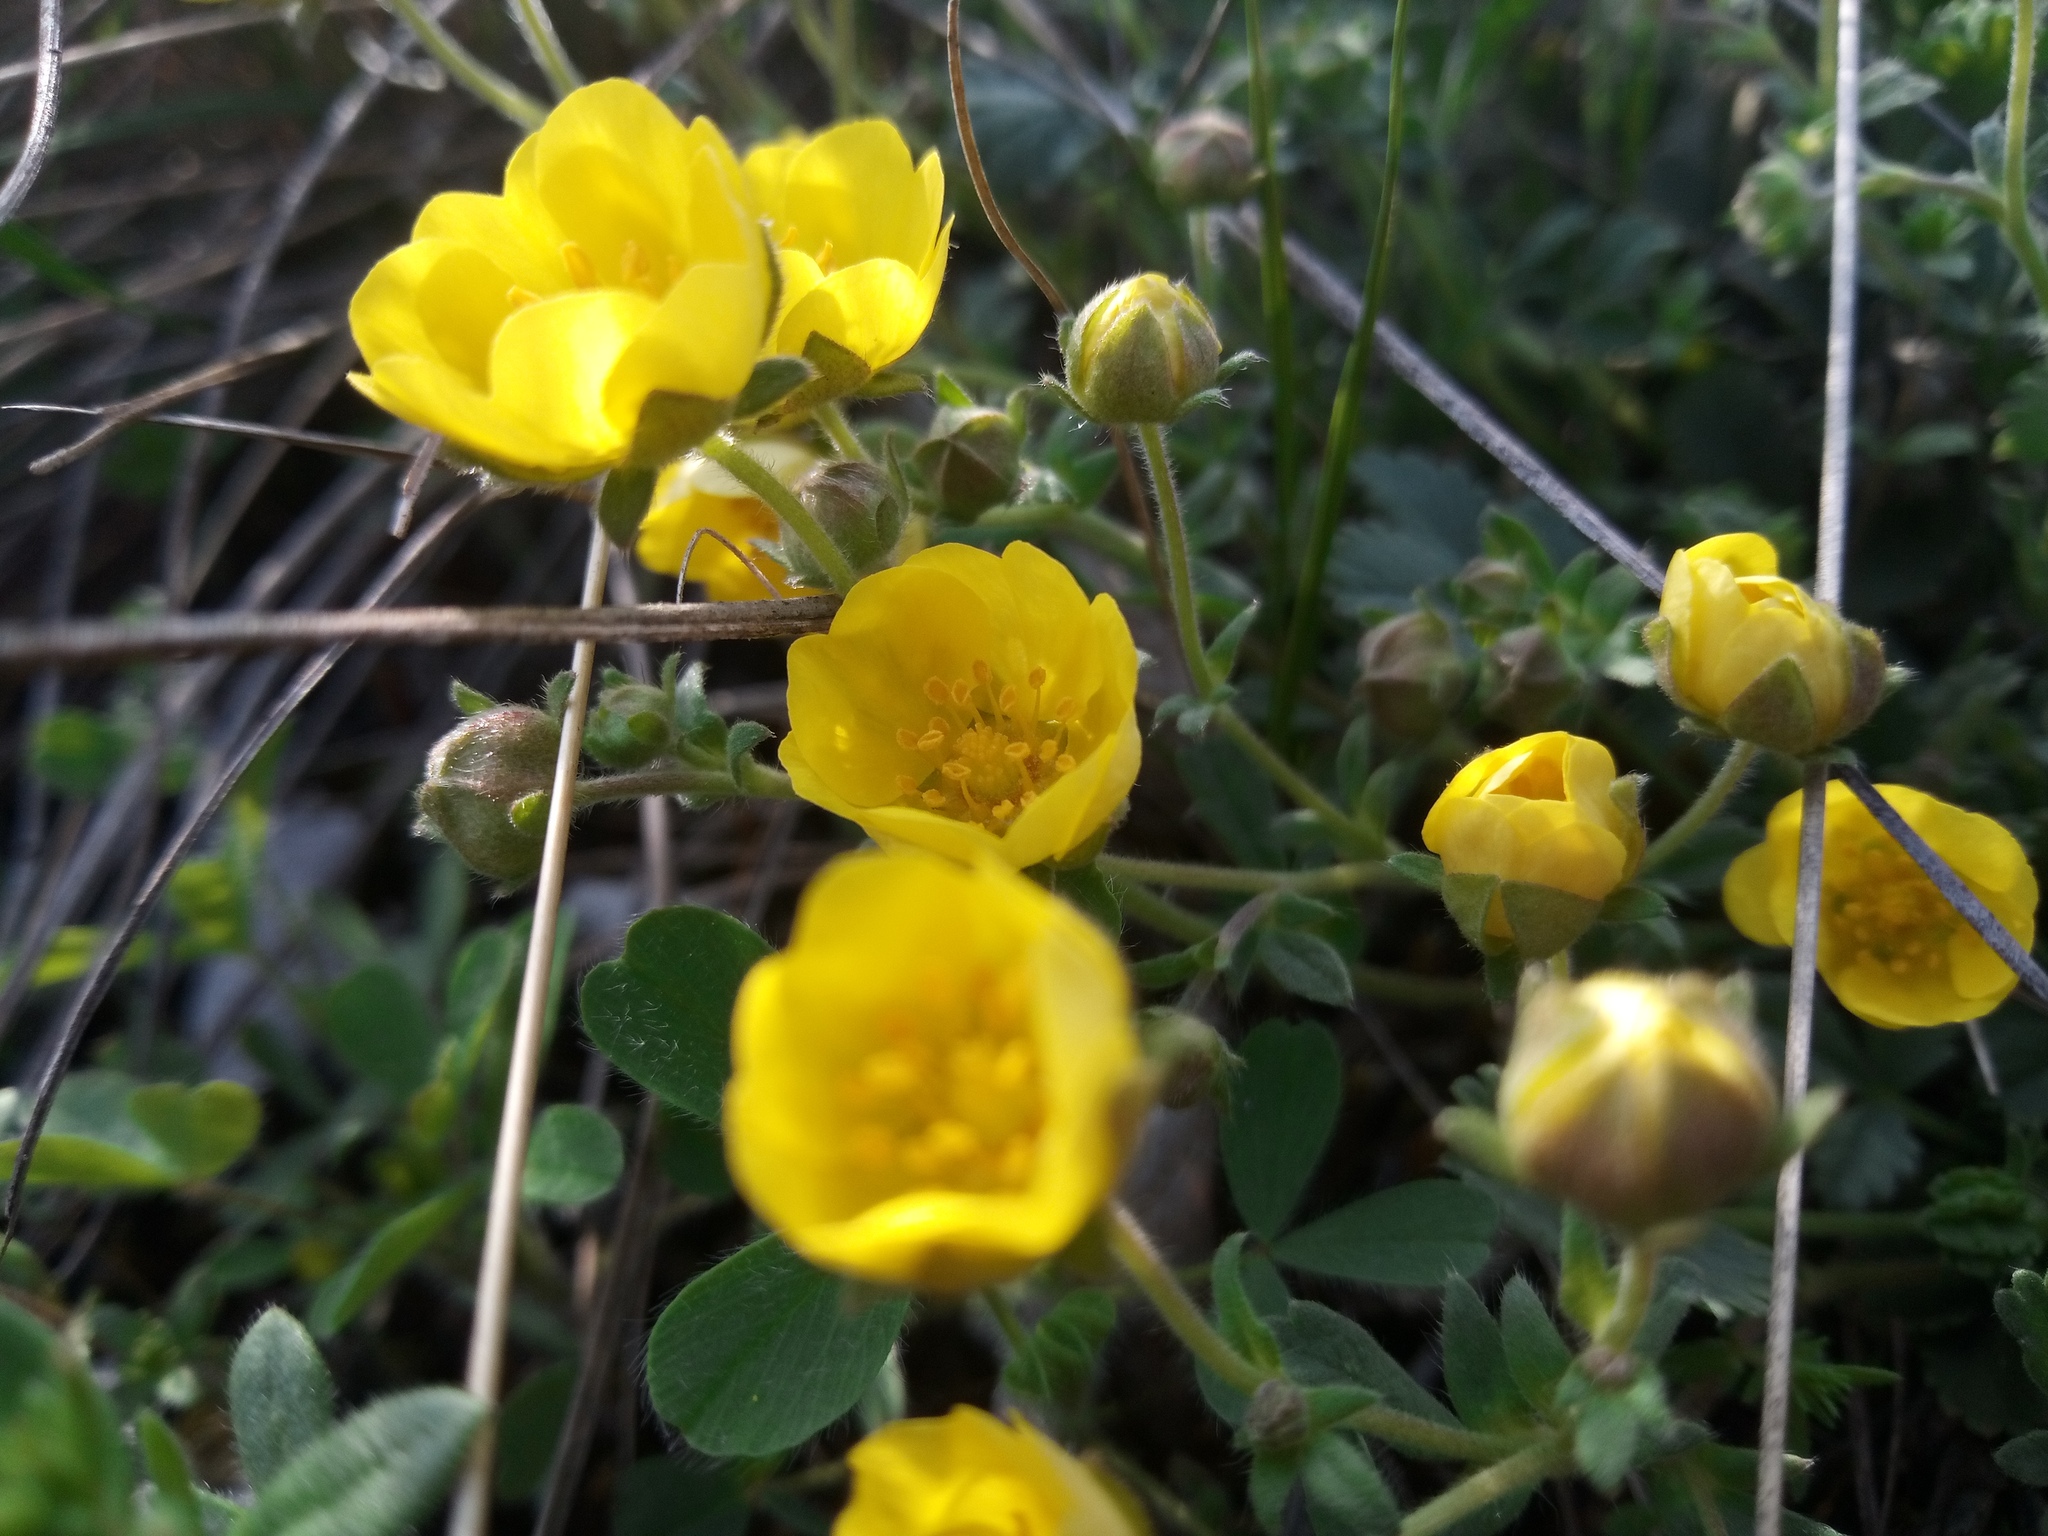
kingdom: Plantae
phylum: Tracheophyta
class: Magnoliopsida
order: Rosales
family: Rosaceae
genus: Potentilla
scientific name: Potentilla incana
